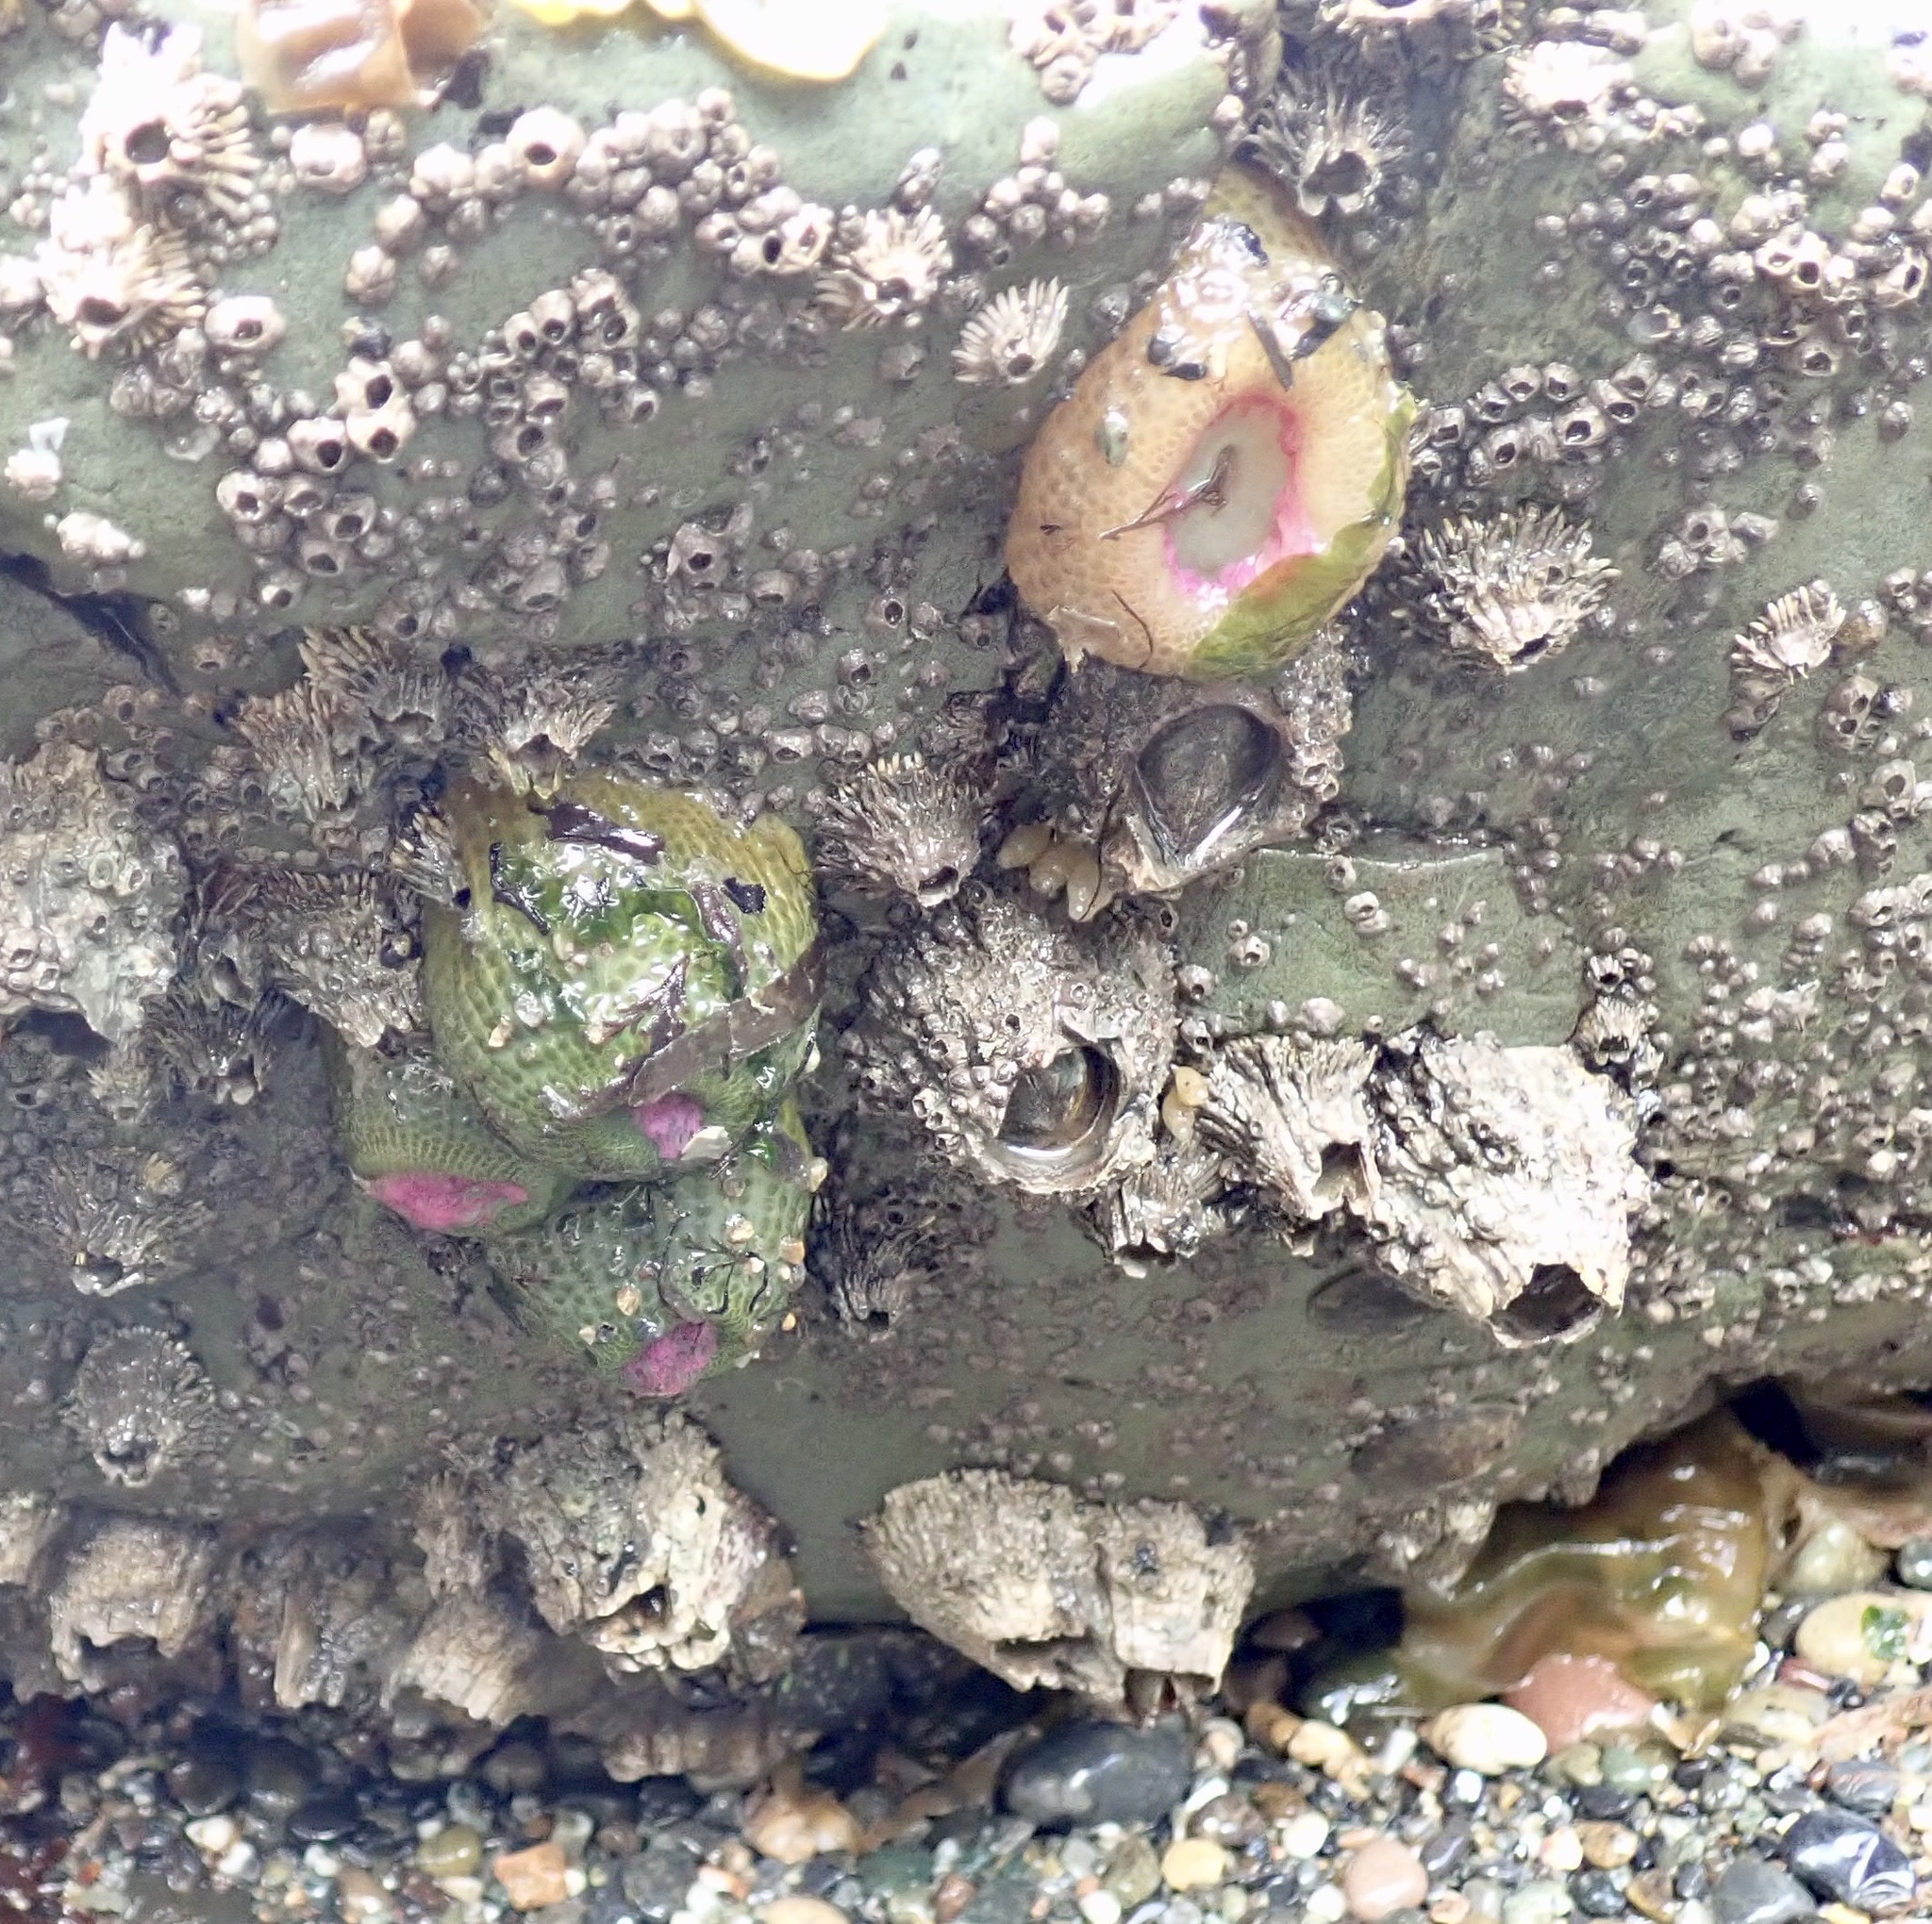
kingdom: Animalia
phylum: Cnidaria
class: Anthozoa
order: Actiniaria
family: Actiniidae
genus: Anthopleura
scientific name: Anthopleura elegantissima
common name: Clonal anemone
